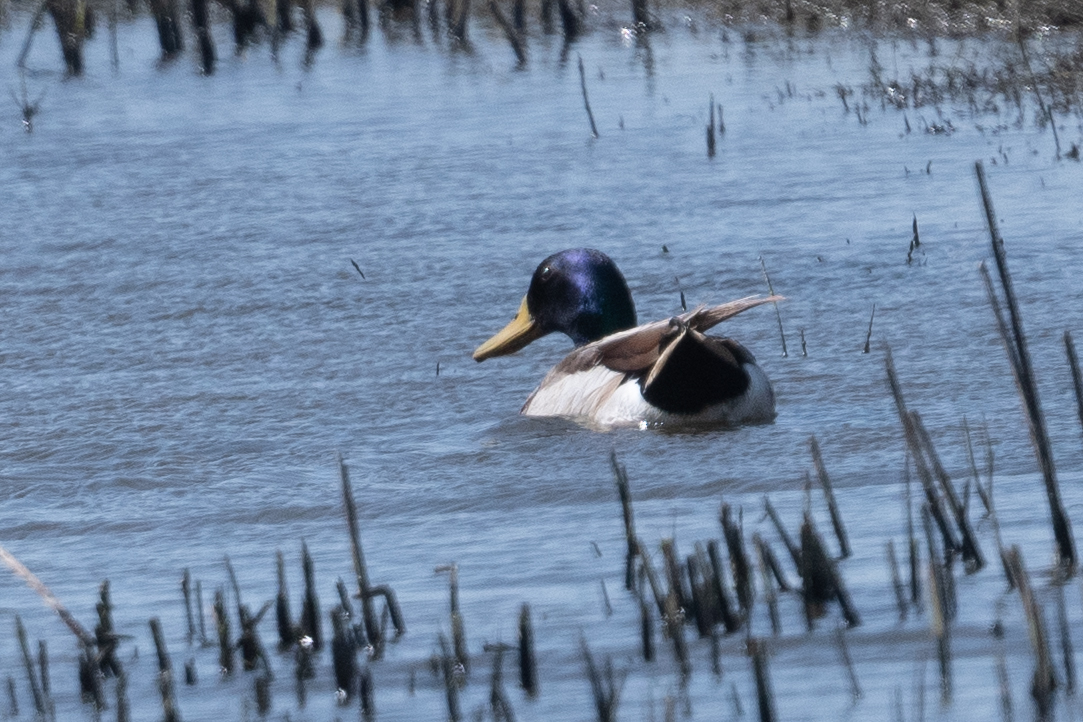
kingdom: Animalia
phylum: Chordata
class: Aves
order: Anseriformes
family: Anatidae
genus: Anas
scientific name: Anas platyrhynchos
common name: Mallard
